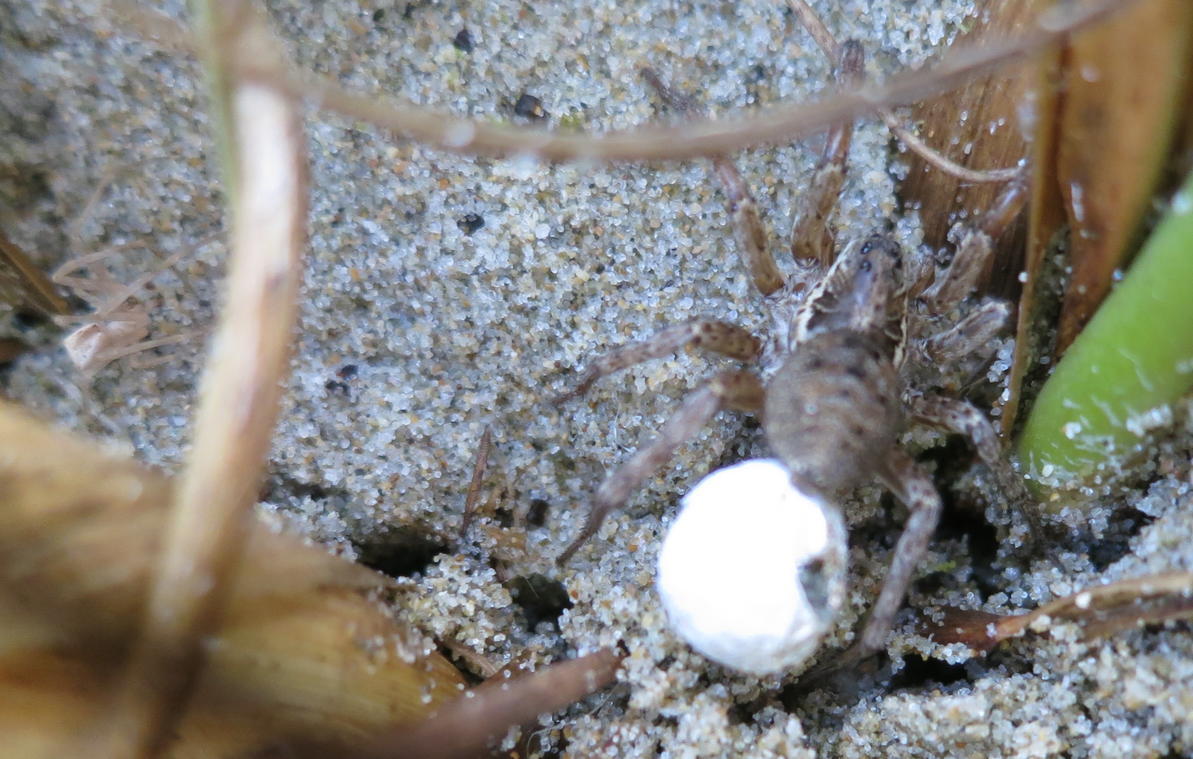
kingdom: Animalia
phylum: Arthropoda
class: Arachnida
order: Araneae
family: Lycosidae
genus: Hogna
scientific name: Hogna crispipes
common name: Wolf spider
